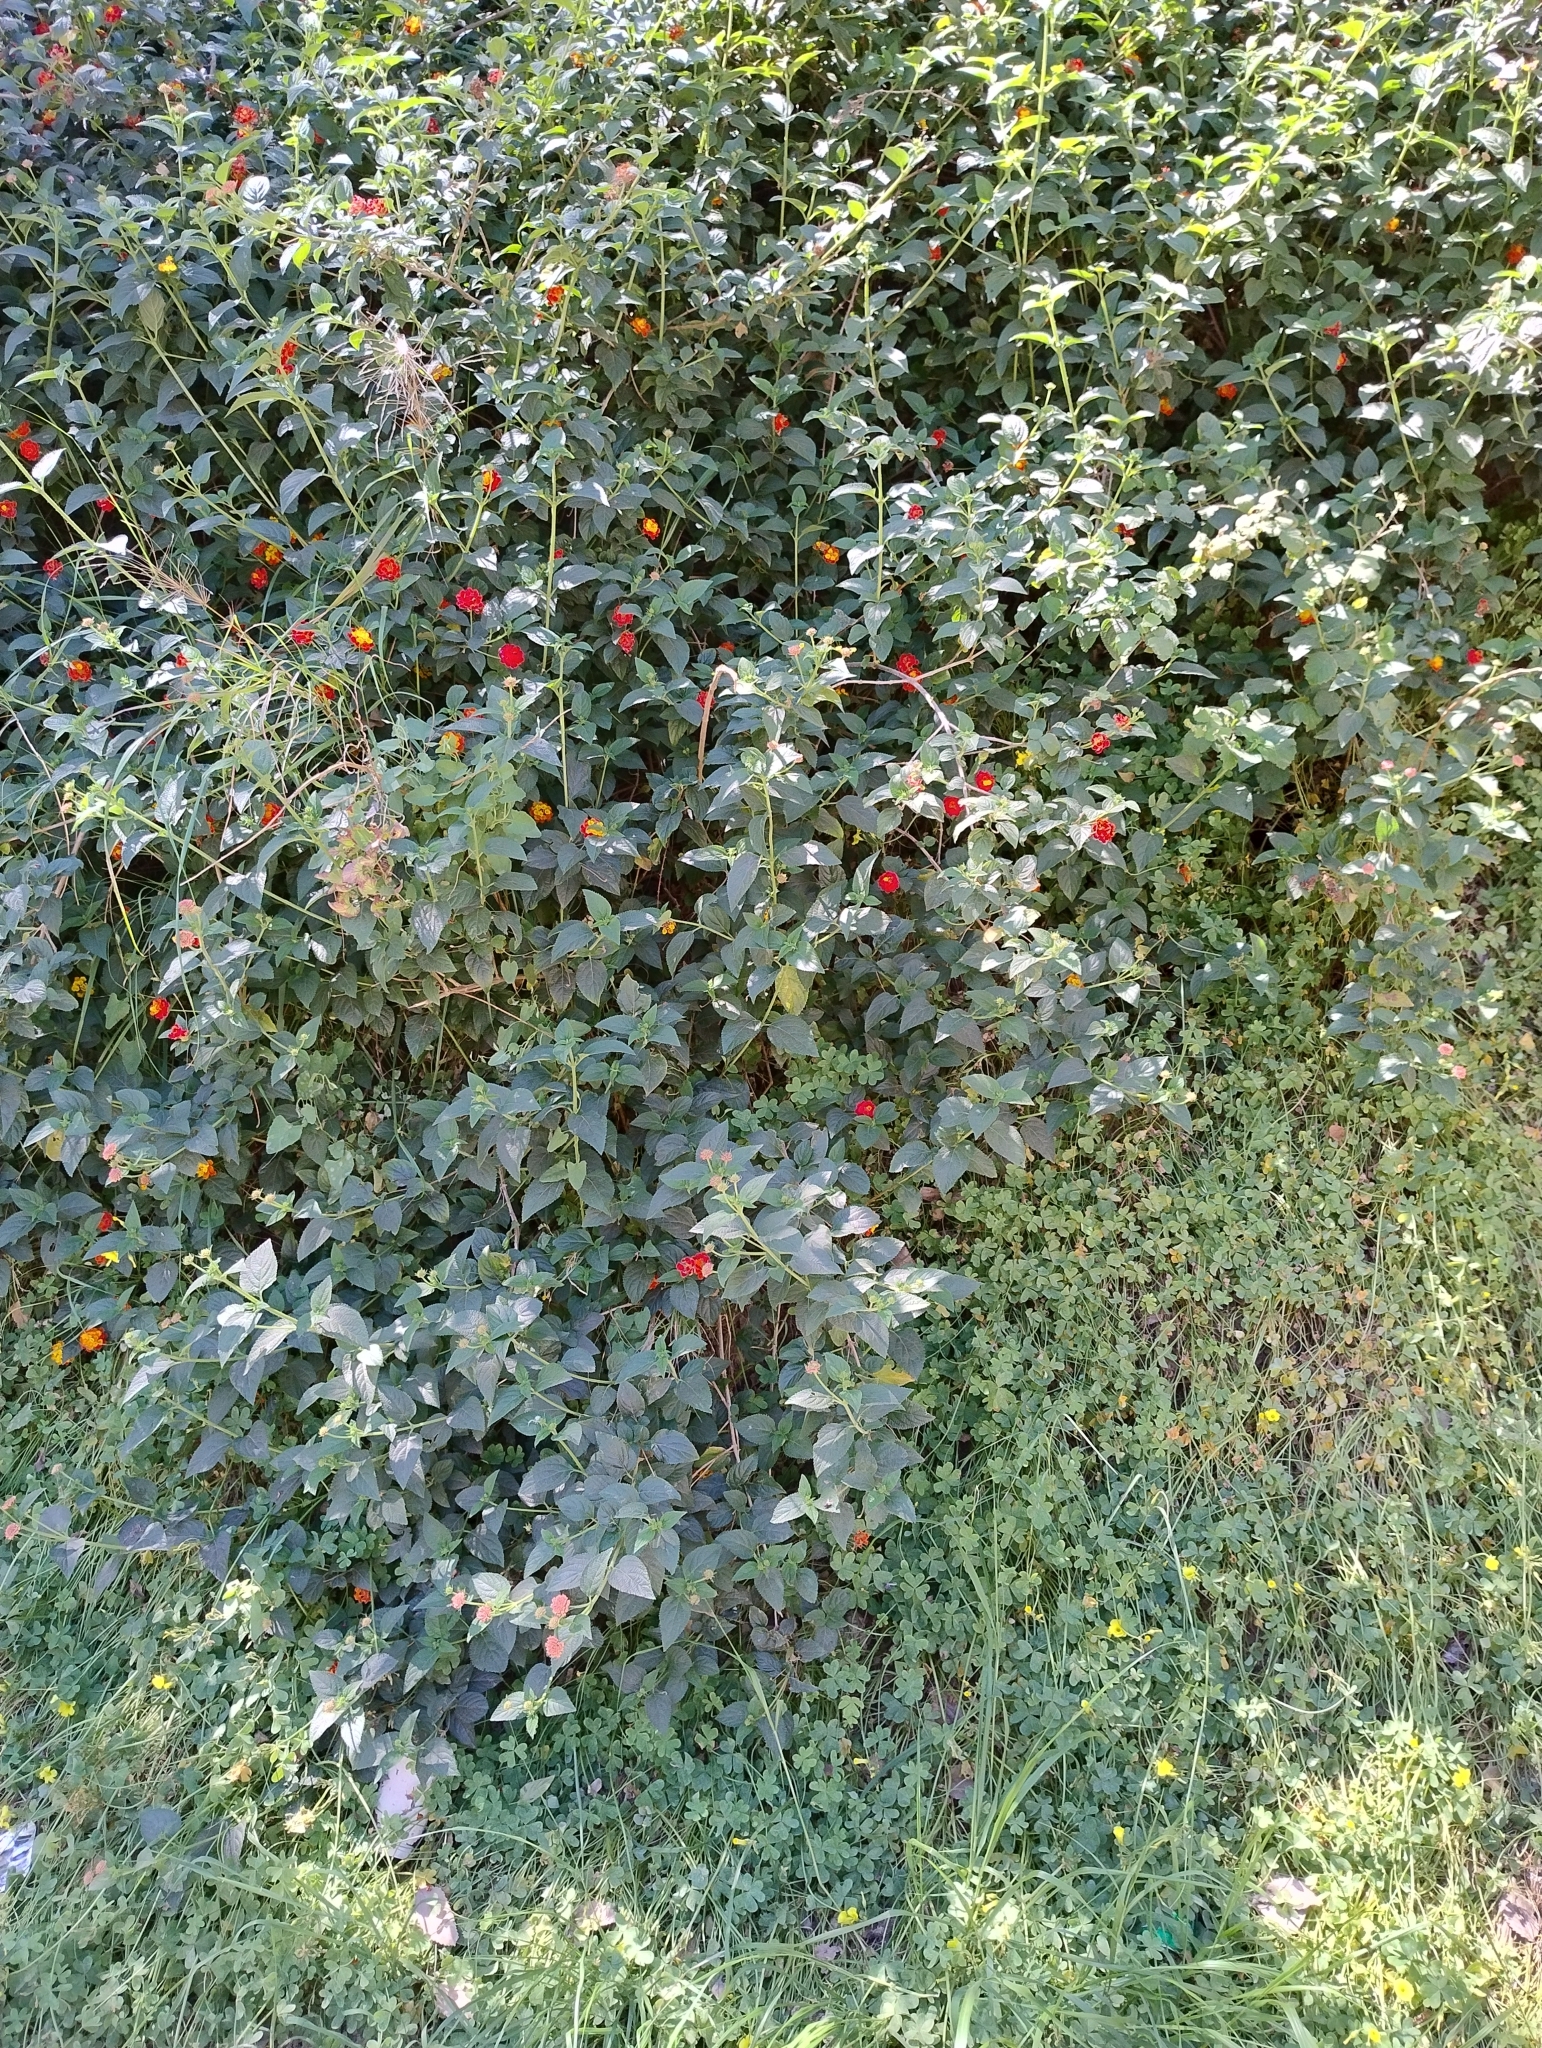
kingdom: Plantae
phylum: Tracheophyta
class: Magnoliopsida
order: Lamiales
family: Verbenaceae
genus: Lantana
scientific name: Lantana camara
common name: Lantana
